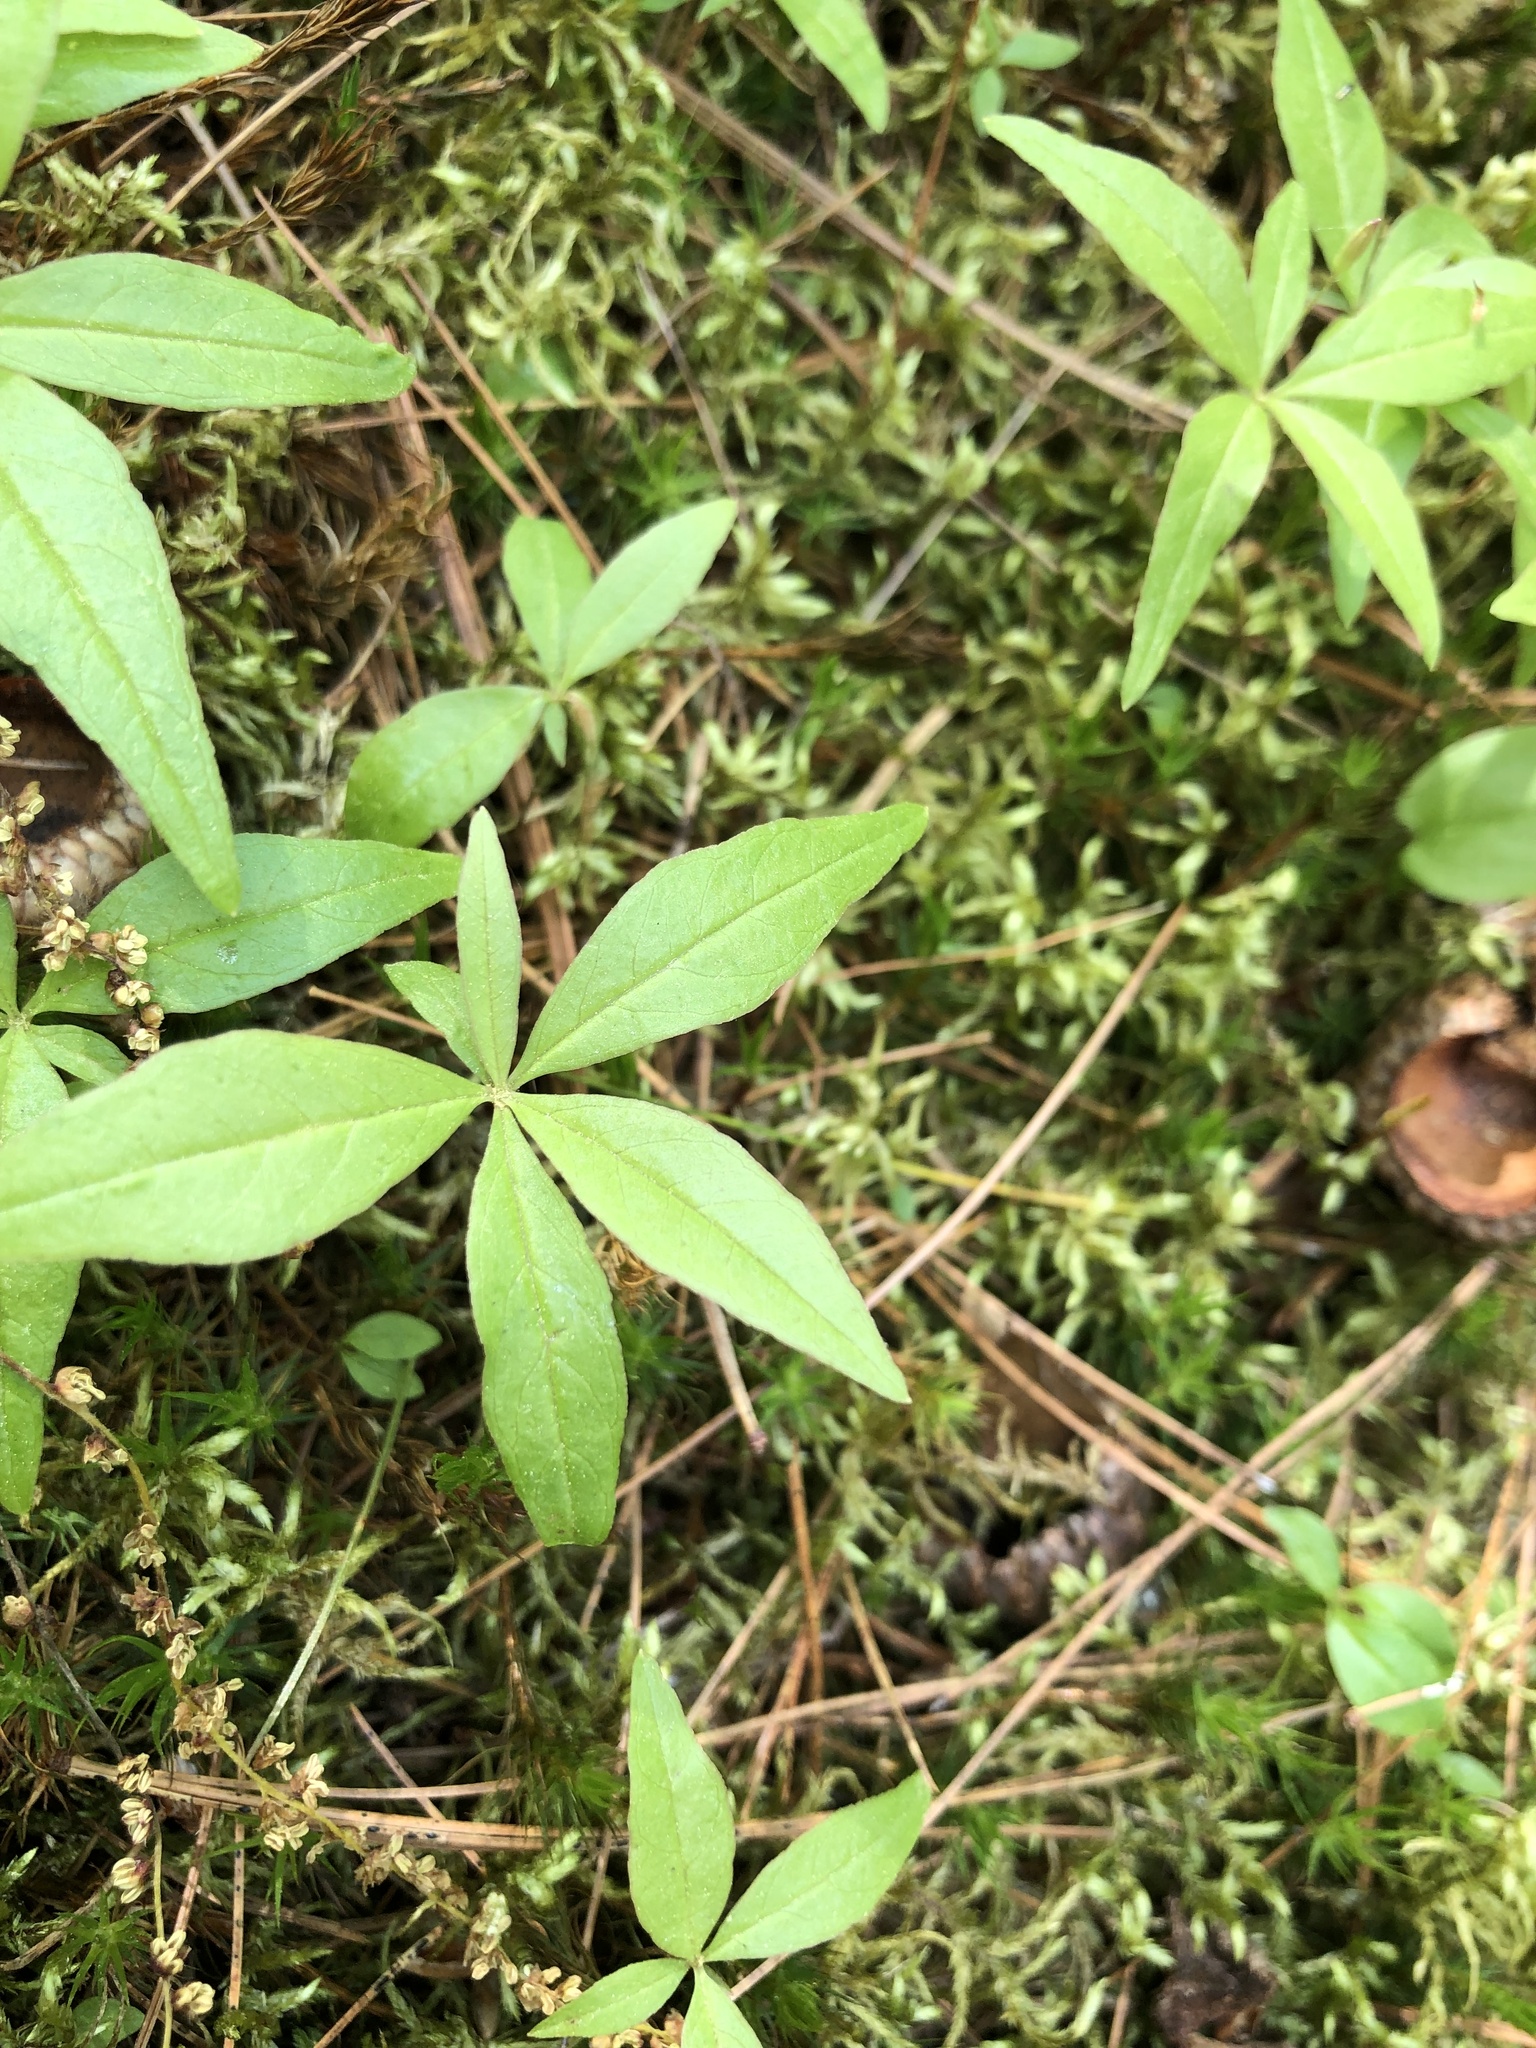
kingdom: Plantae
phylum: Tracheophyta
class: Magnoliopsida
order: Ericales
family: Primulaceae
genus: Lysimachia
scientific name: Lysimachia borealis
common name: American starflower
